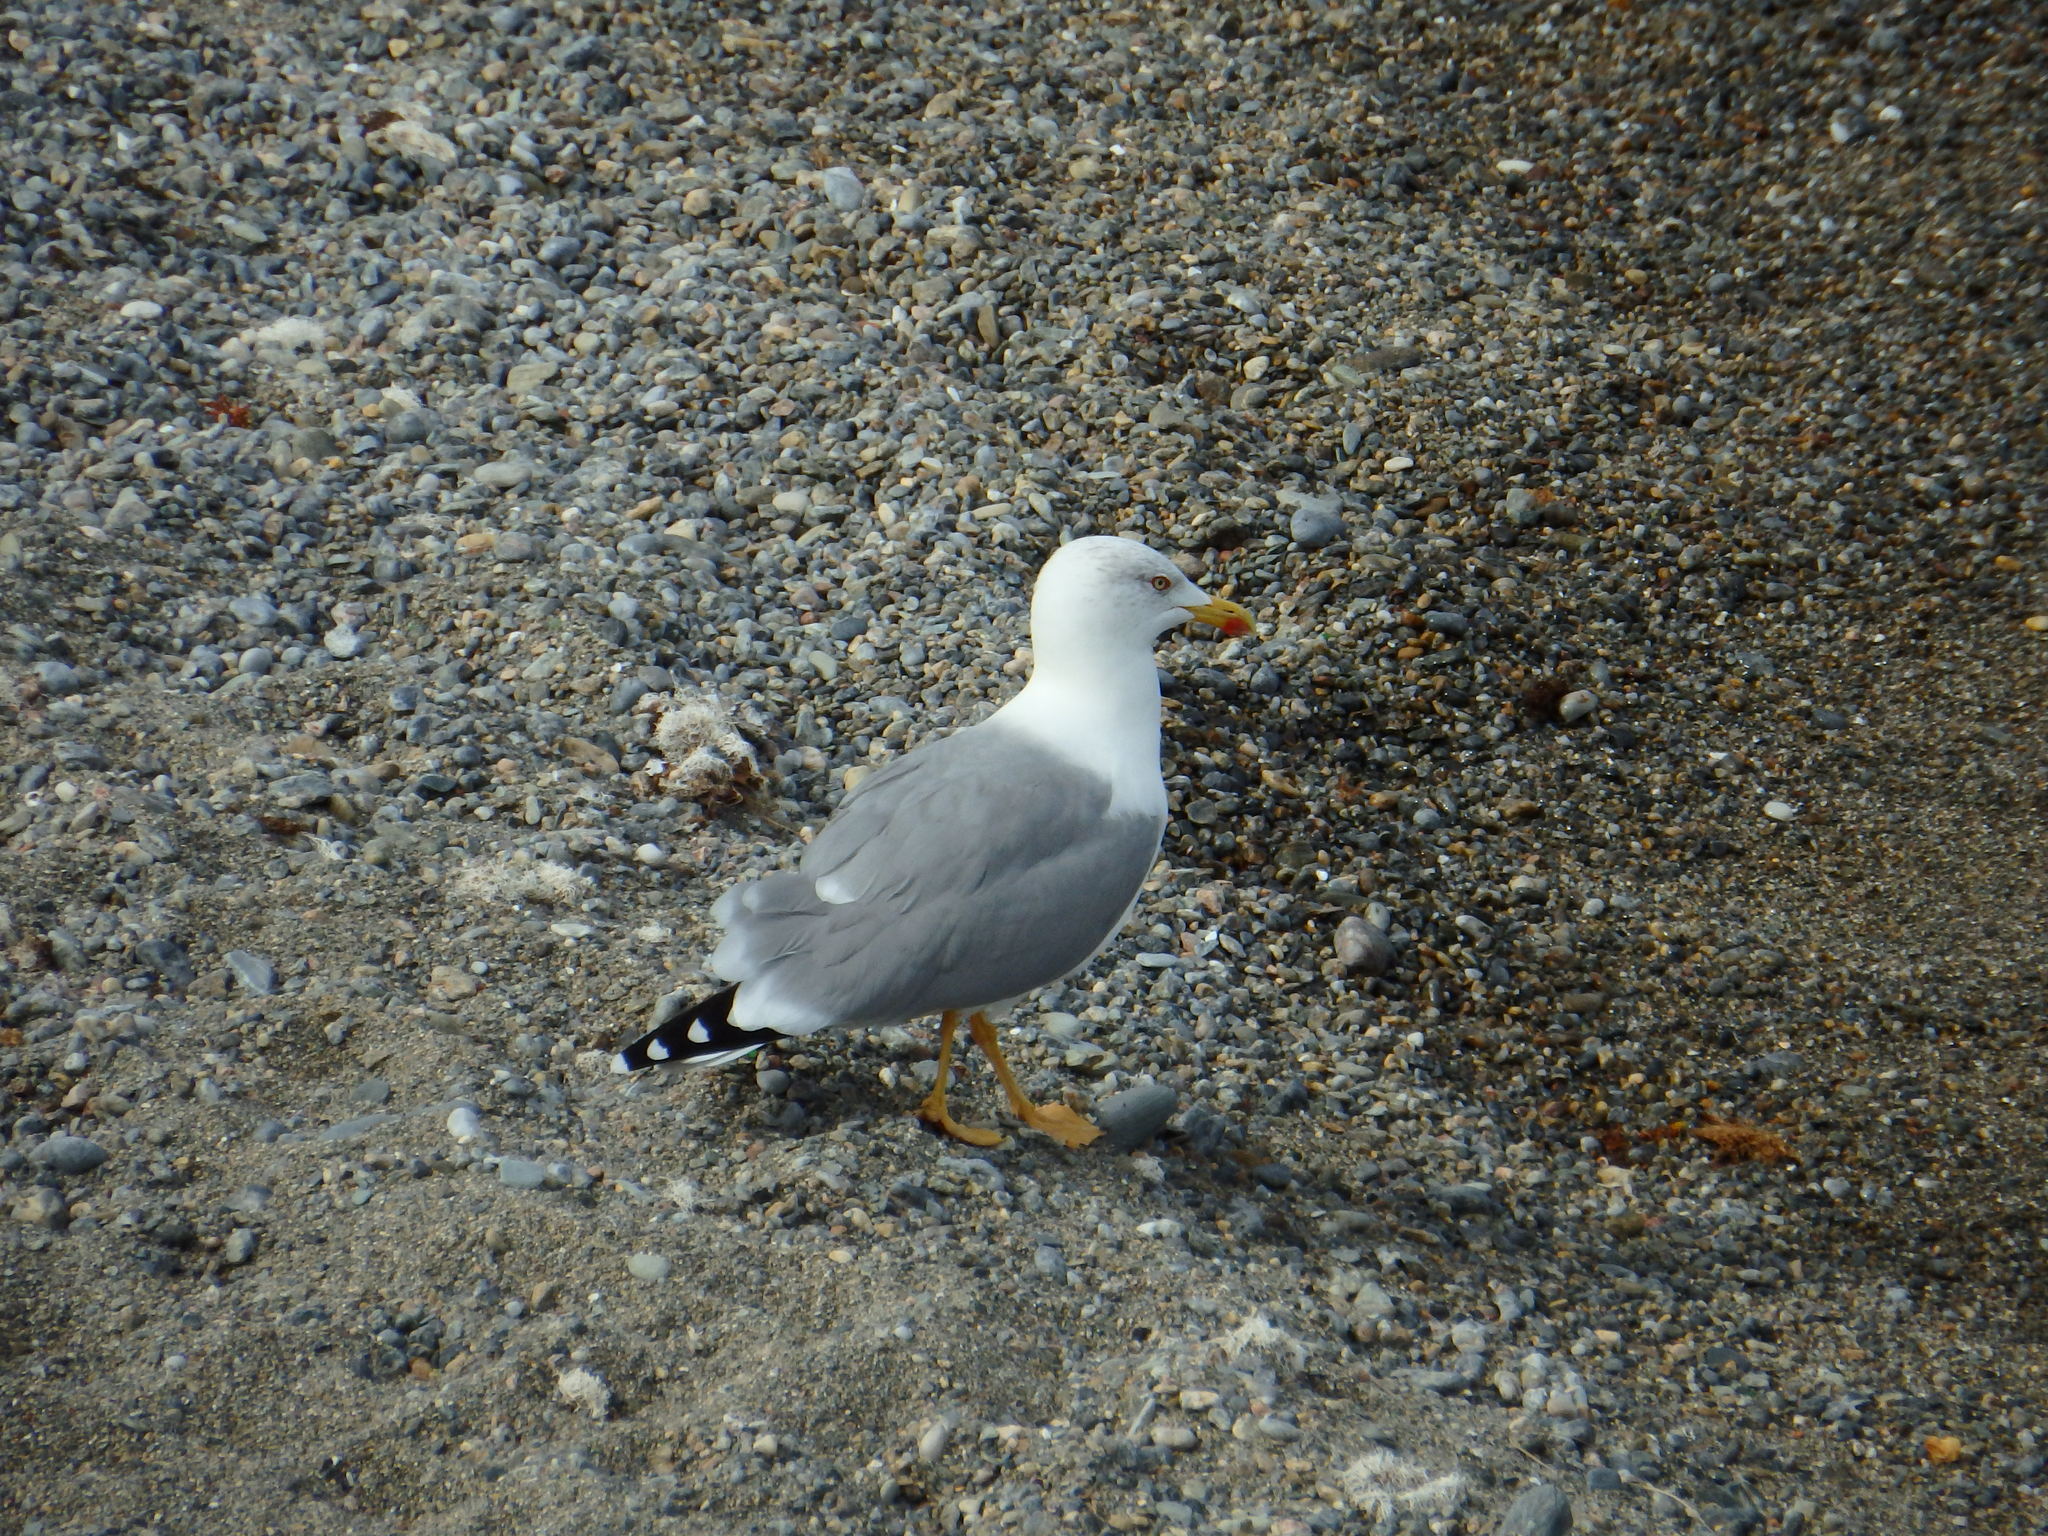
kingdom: Animalia
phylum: Chordata
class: Aves
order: Charadriiformes
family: Laridae
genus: Larus
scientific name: Larus michahellis
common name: Yellow-legged gull
